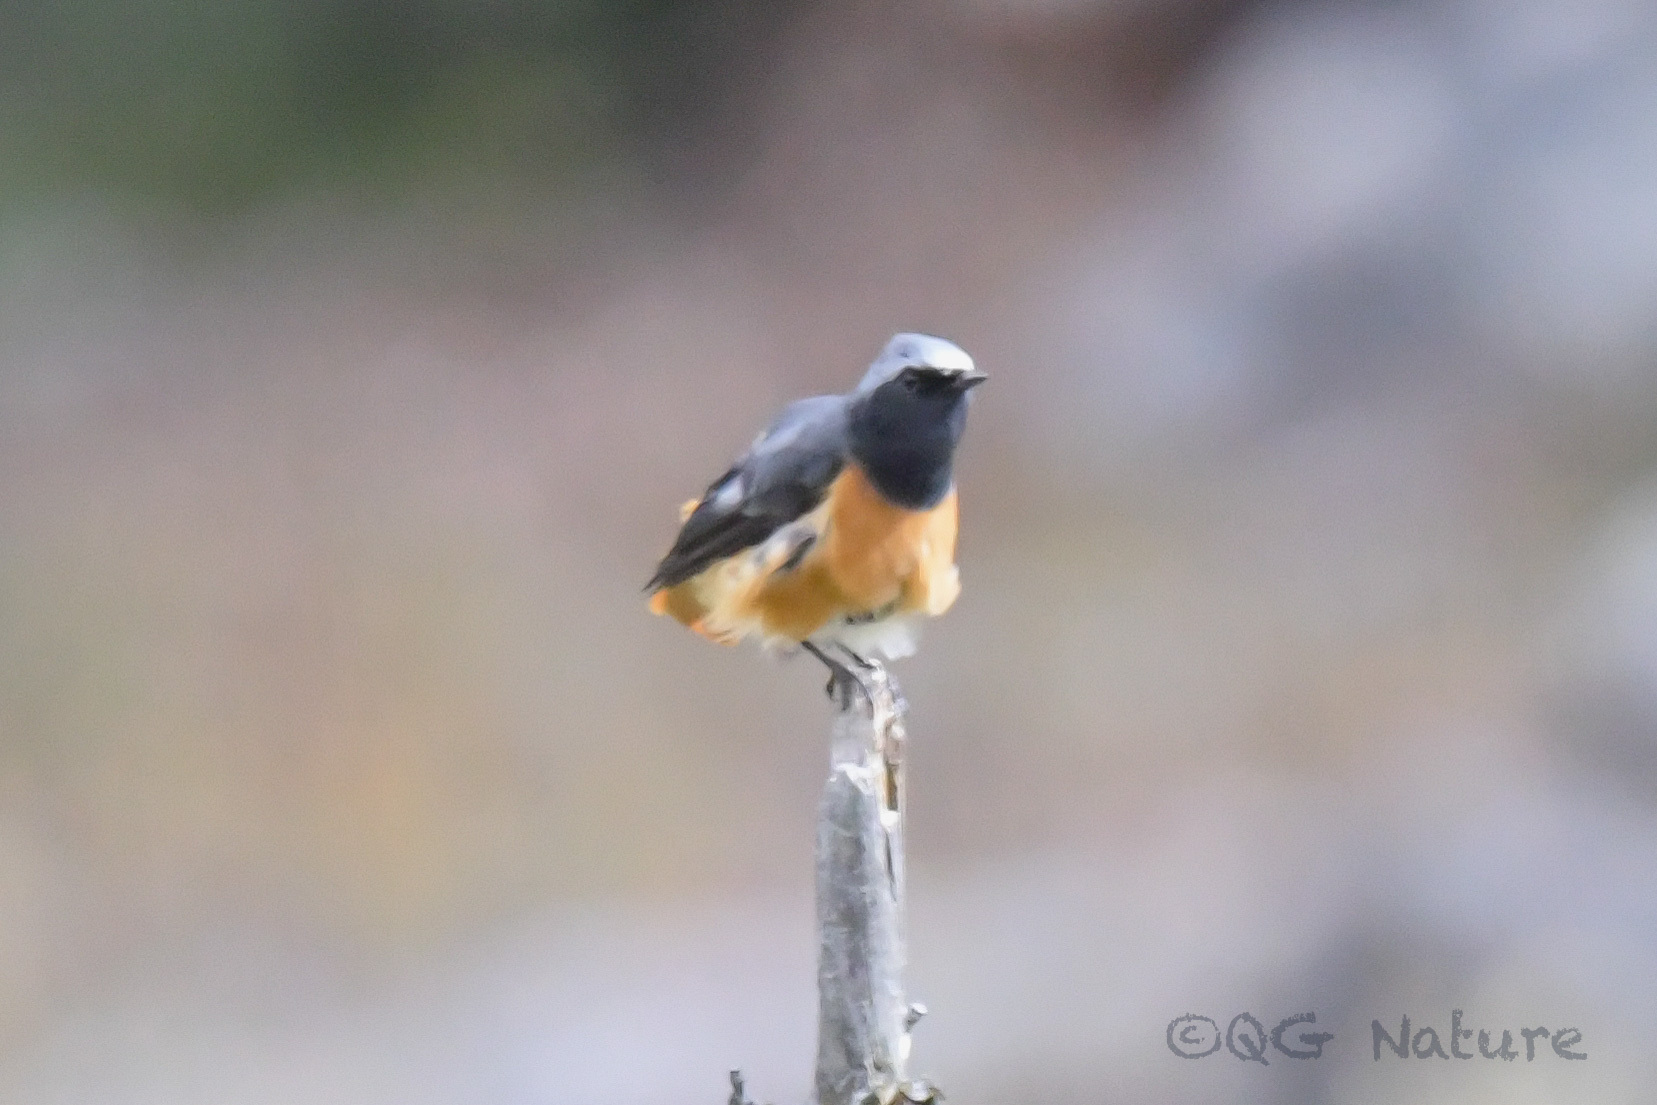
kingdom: Animalia
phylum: Chordata
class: Aves
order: Passeriformes
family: Muscicapidae
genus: Phoenicurus
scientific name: Phoenicurus hodgsoni
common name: Hodgson's redstart
